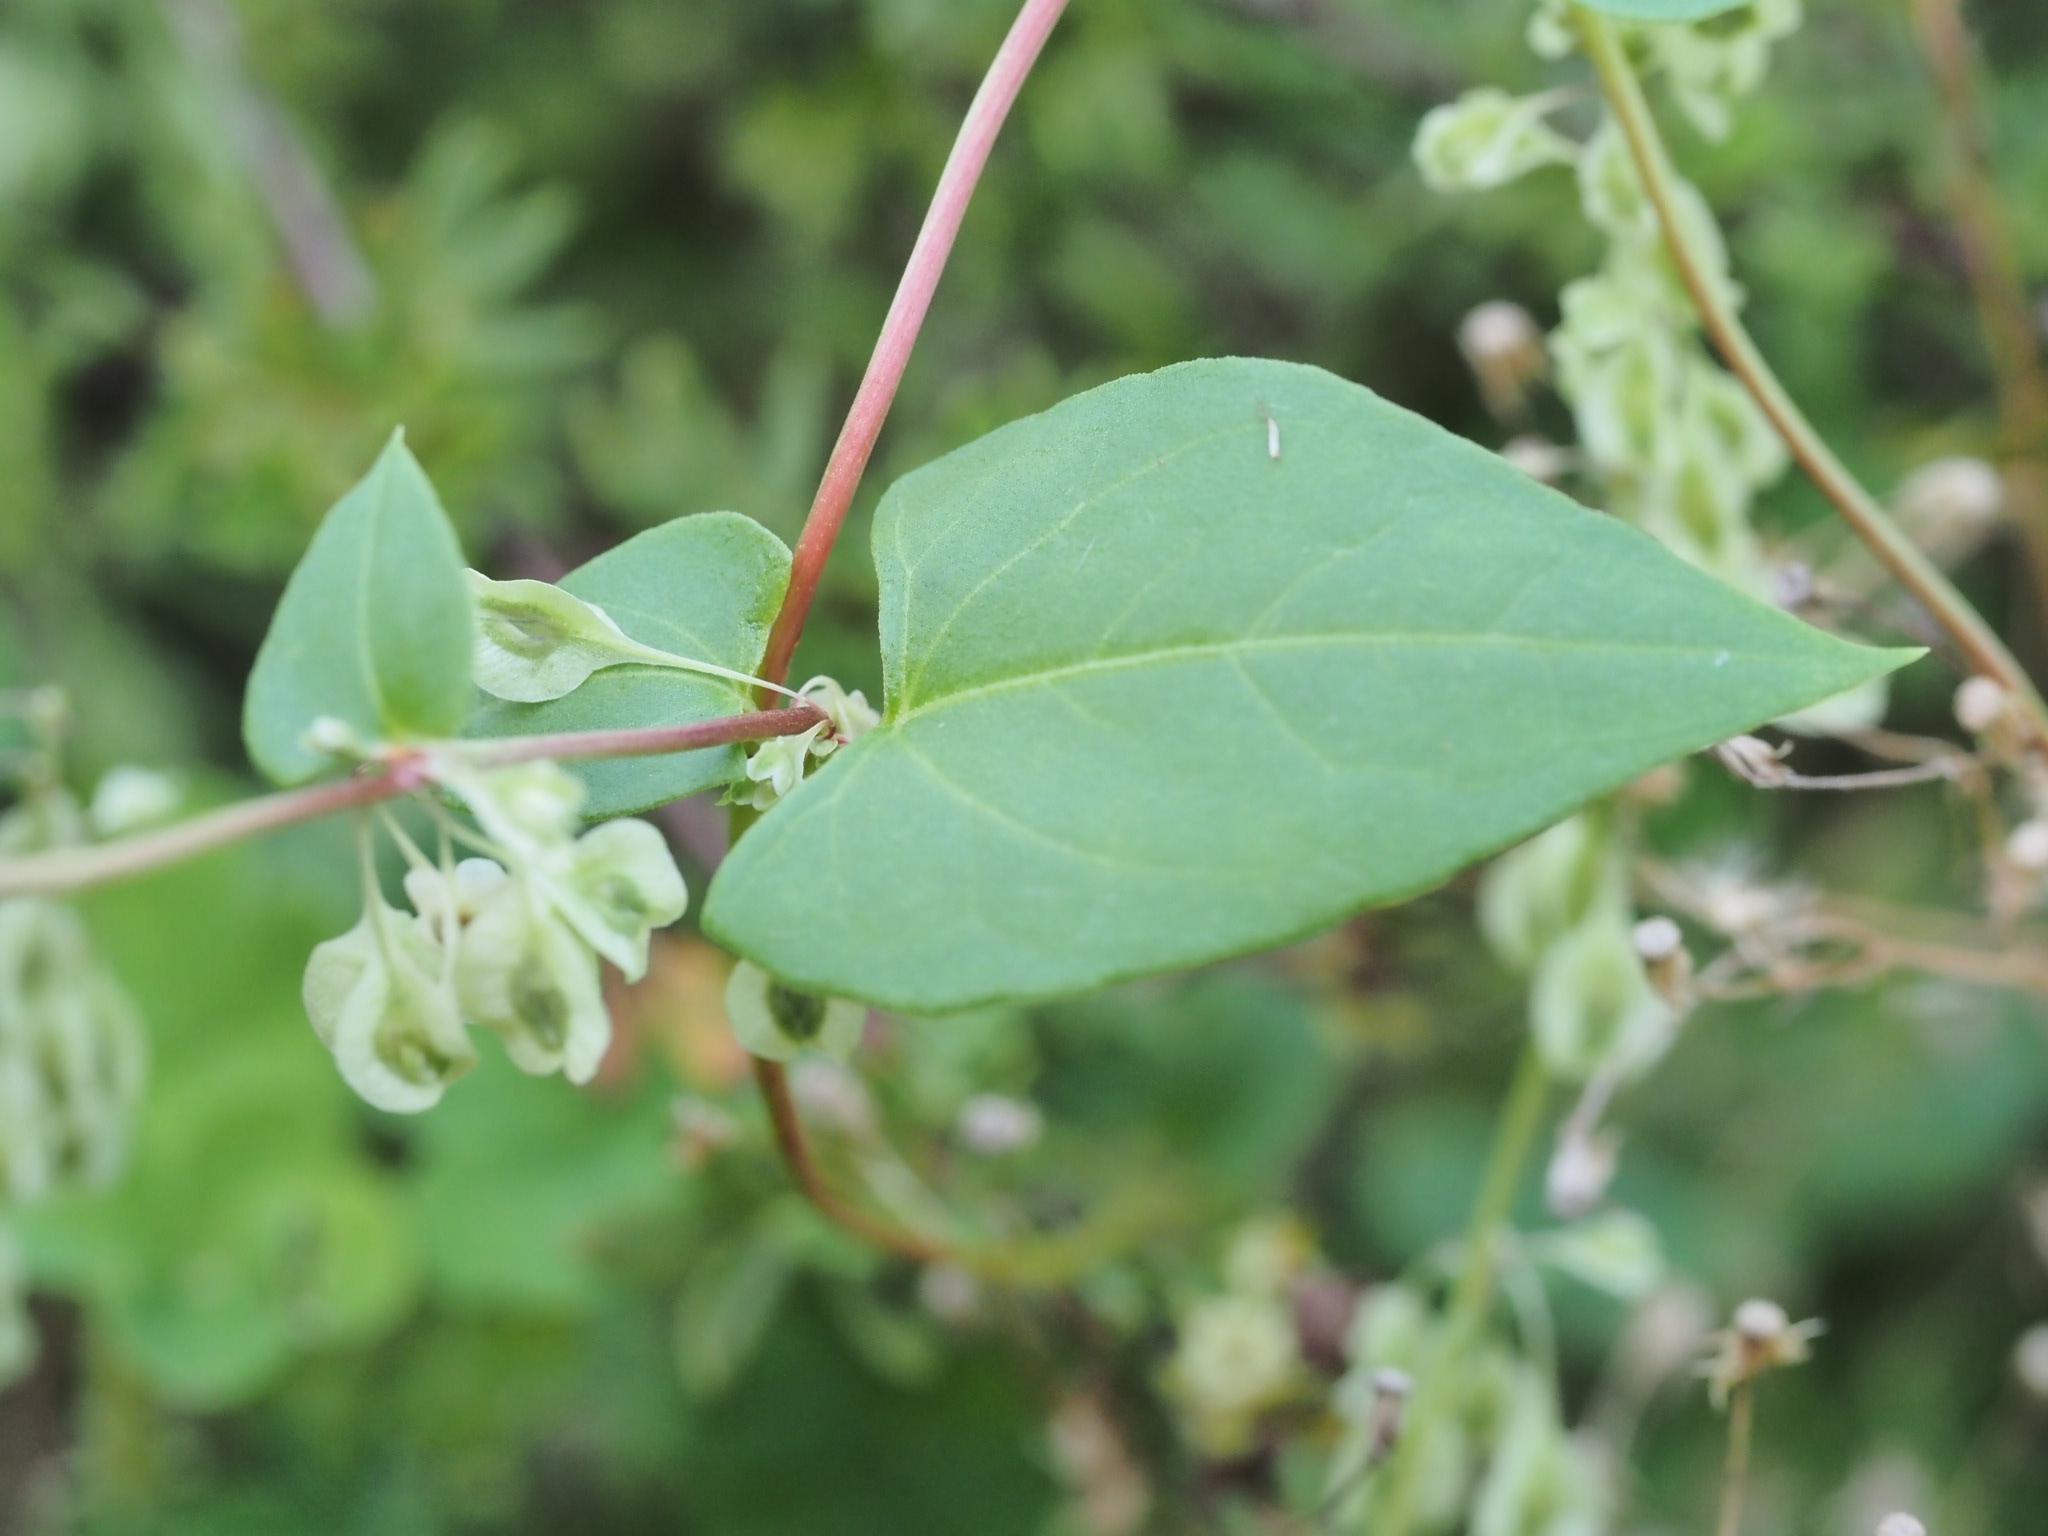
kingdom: Plantae
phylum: Tracheophyta
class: Magnoliopsida
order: Caryophyllales
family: Polygonaceae
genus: Fallopia
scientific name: Fallopia dumetorum
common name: Copse-bindweed
